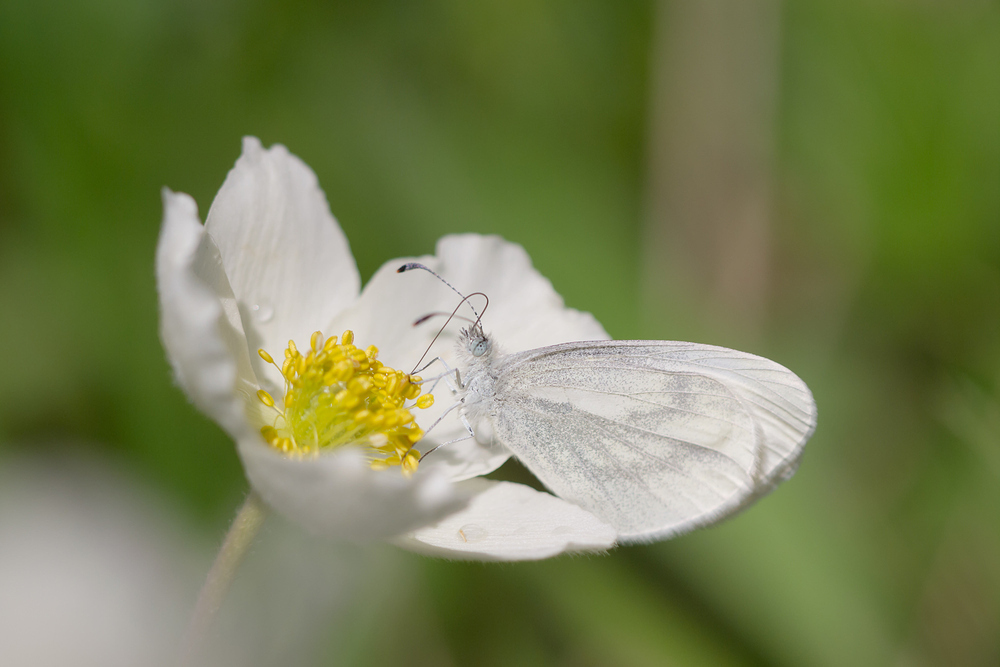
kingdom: Animalia
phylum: Arthropoda
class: Insecta
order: Lepidoptera
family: Pieridae
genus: Leptidea
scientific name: Leptidea sinapis
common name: Wood white
